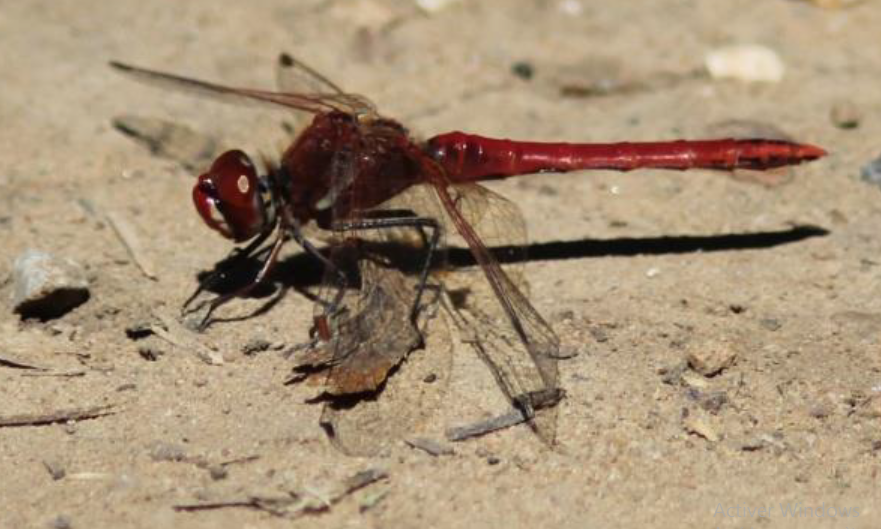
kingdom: Animalia
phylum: Arthropoda
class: Insecta
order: Odonata
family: Libellulidae
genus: Sympetrum
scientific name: Sympetrum fonscolombii
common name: Red-veined darter
